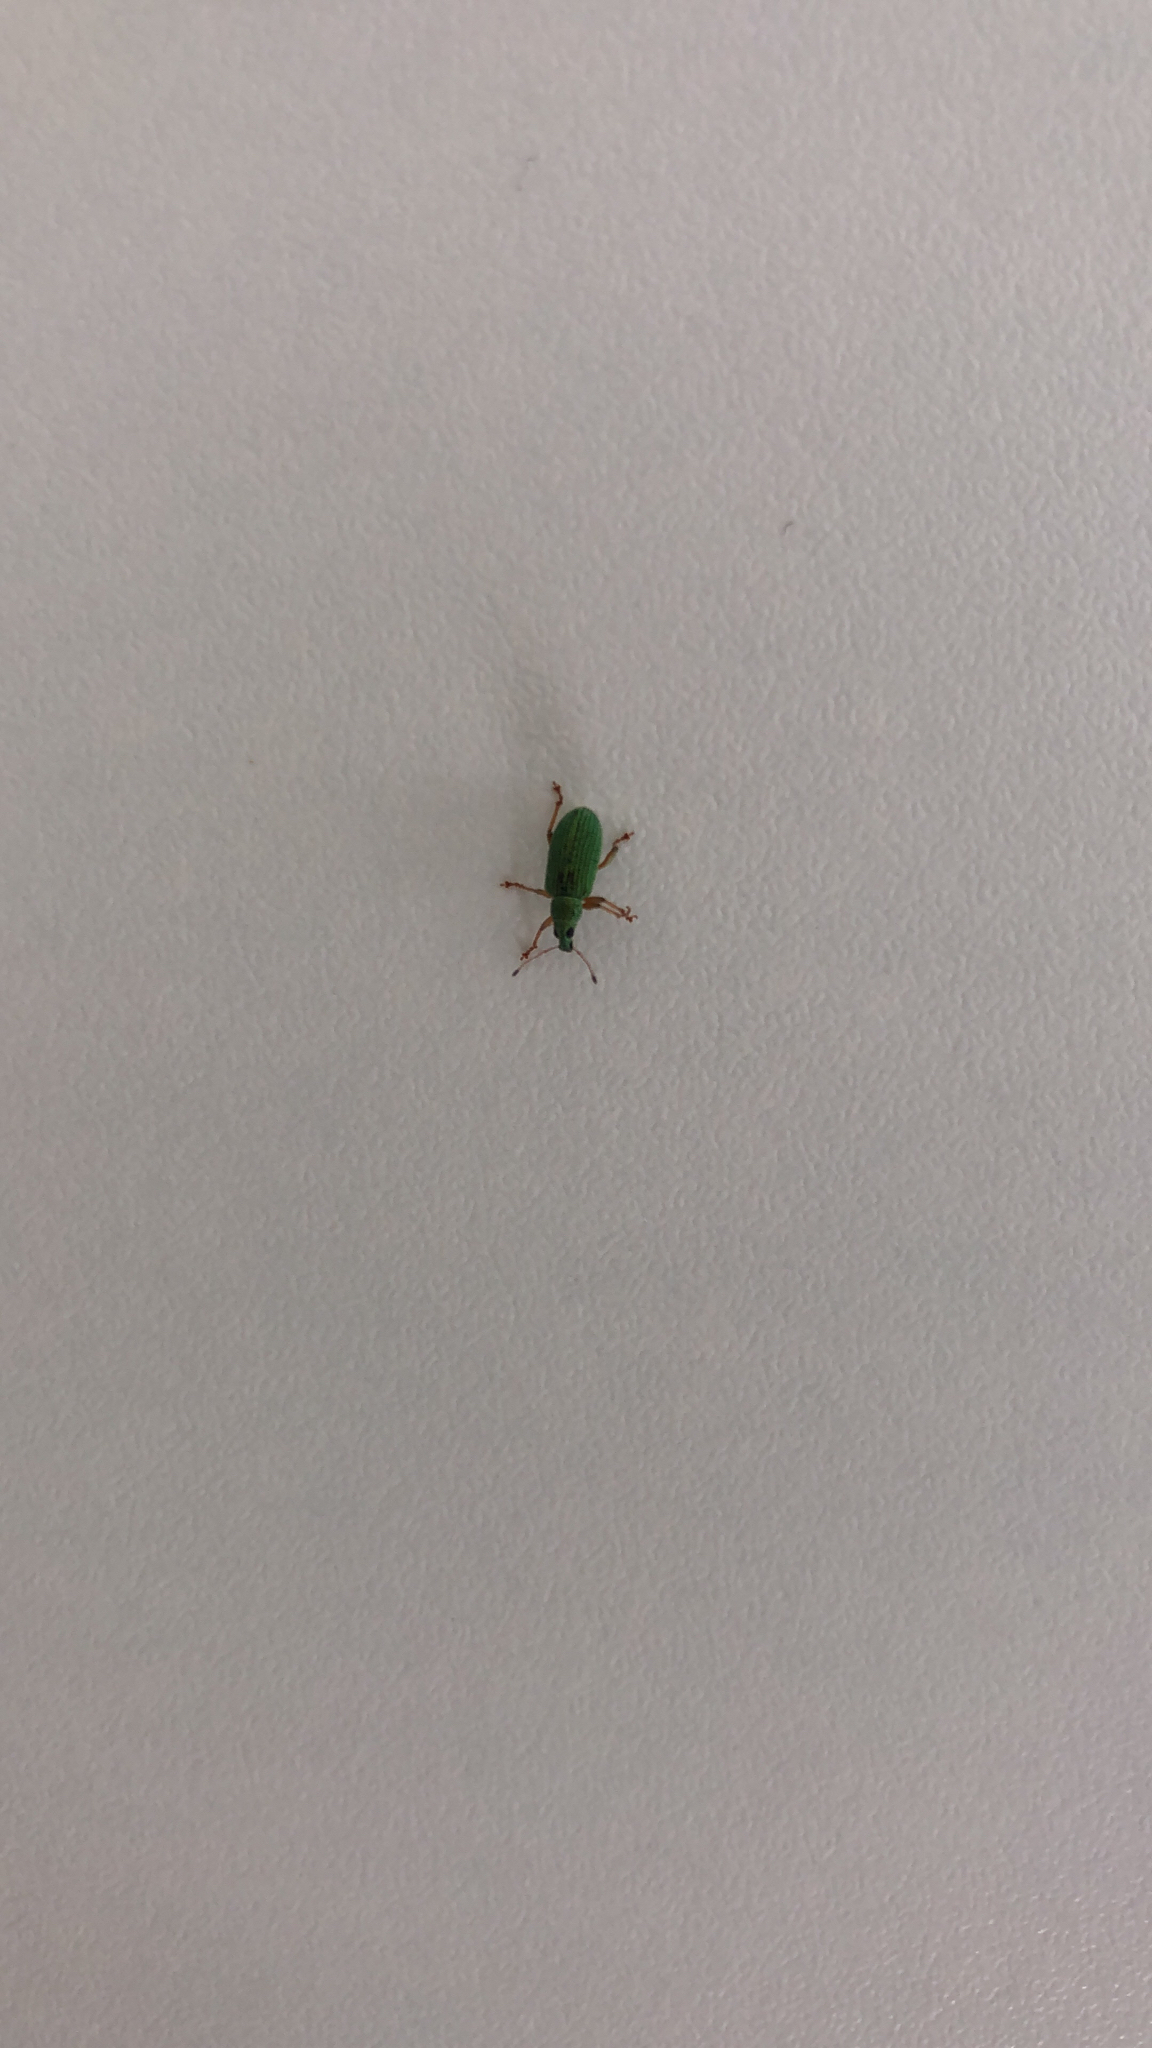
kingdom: Animalia
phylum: Arthropoda
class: Insecta
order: Coleoptera
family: Curculionidae
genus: Polydrusus
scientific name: Polydrusus formosus
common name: Weevil
